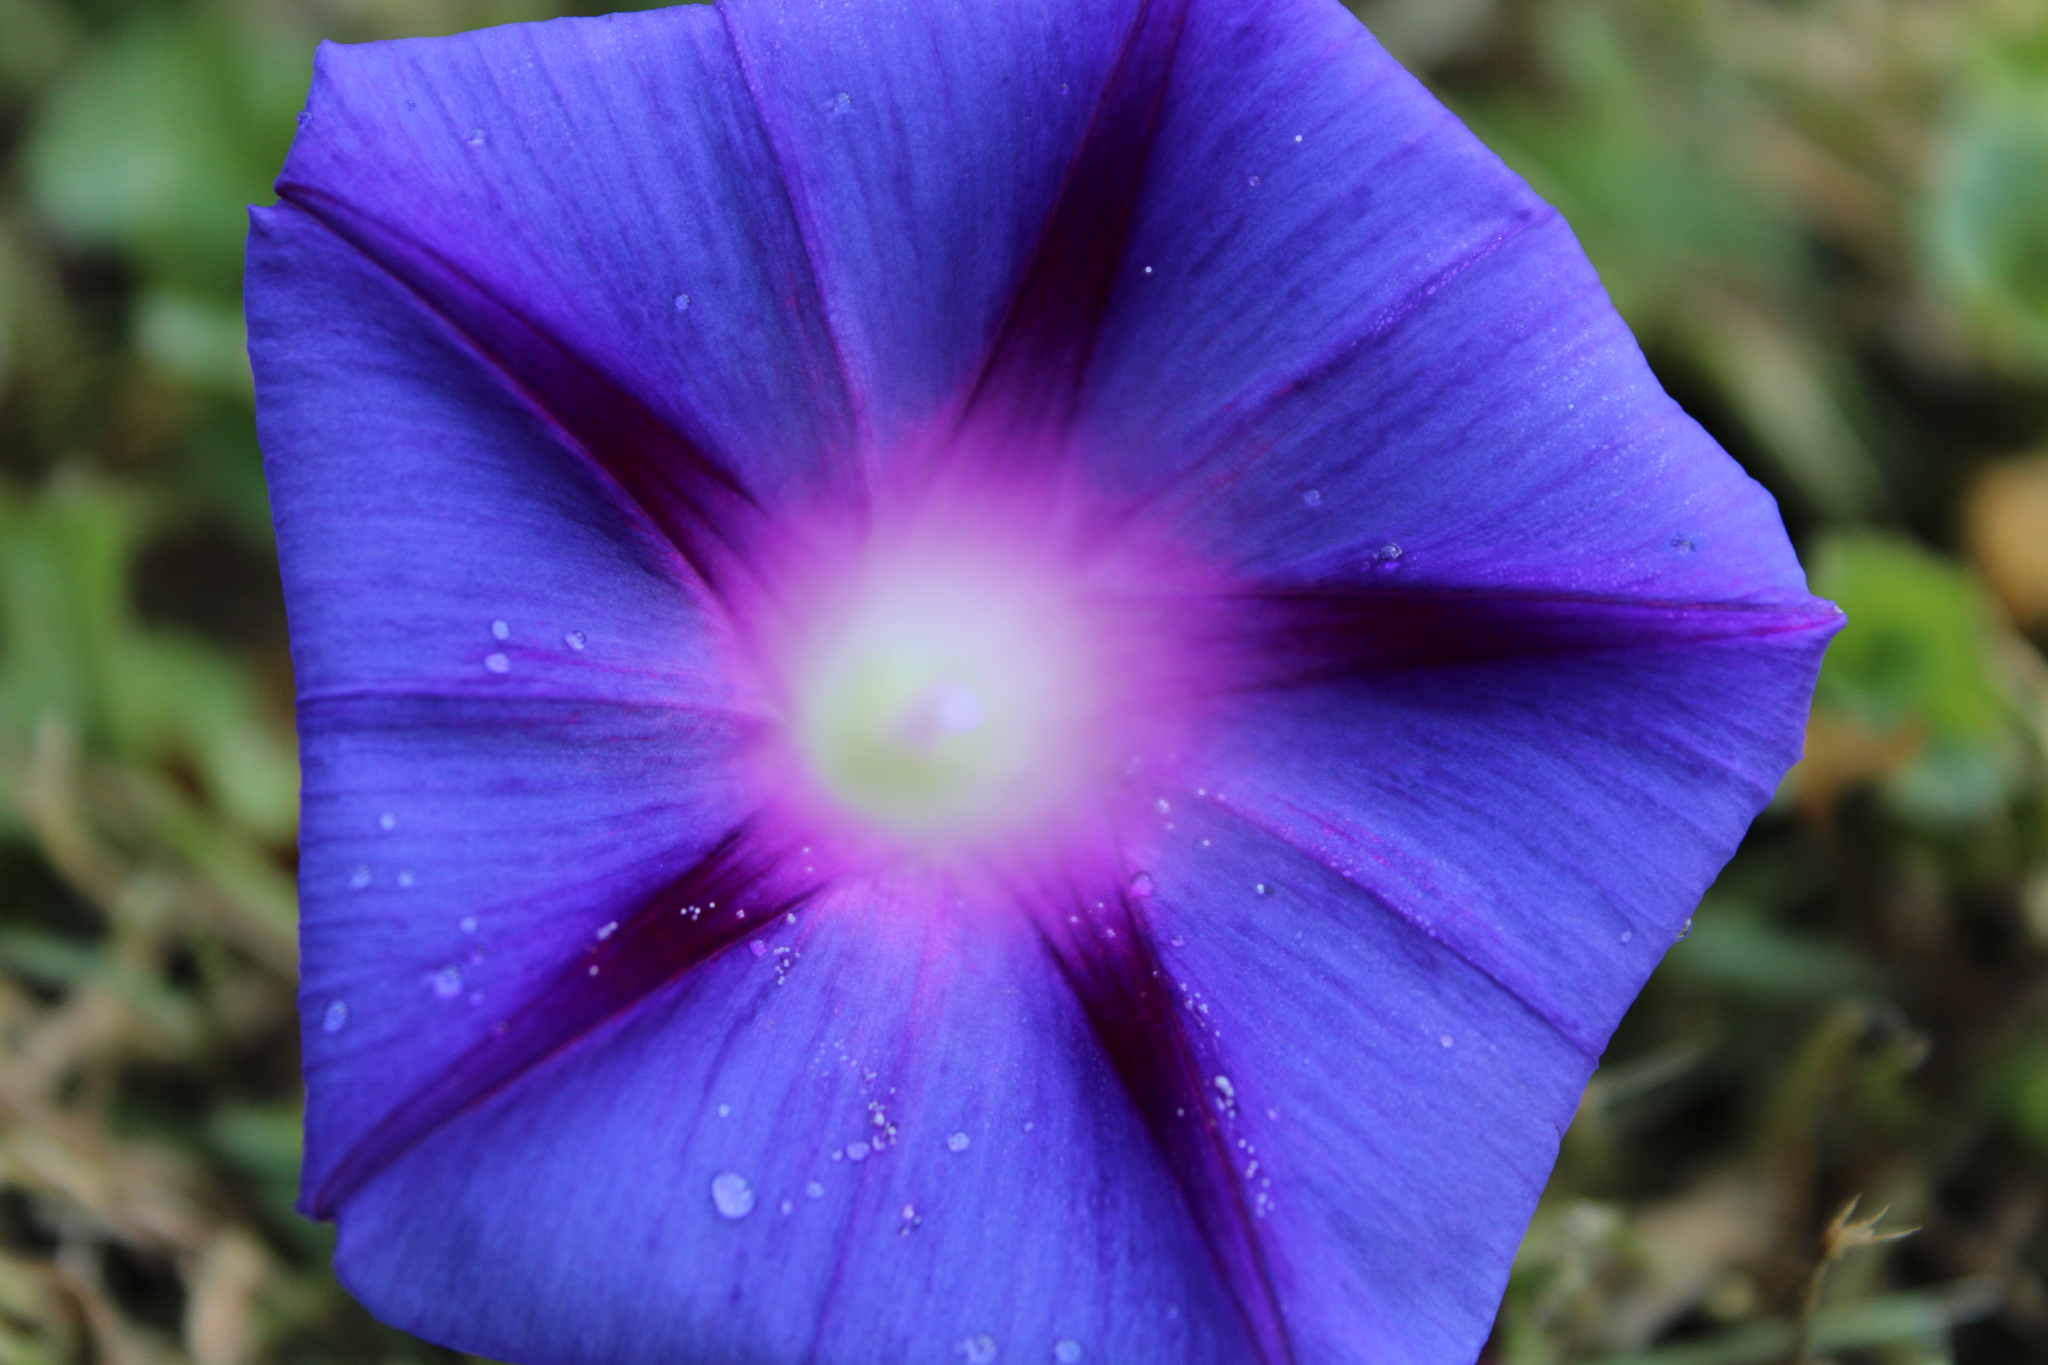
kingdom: Plantae
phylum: Tracheophyta
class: Magnoliopsida
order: Solanales
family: Convolvulaceae
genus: Ipomoea
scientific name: Ipomoea purpurea
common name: Common morning-glory
